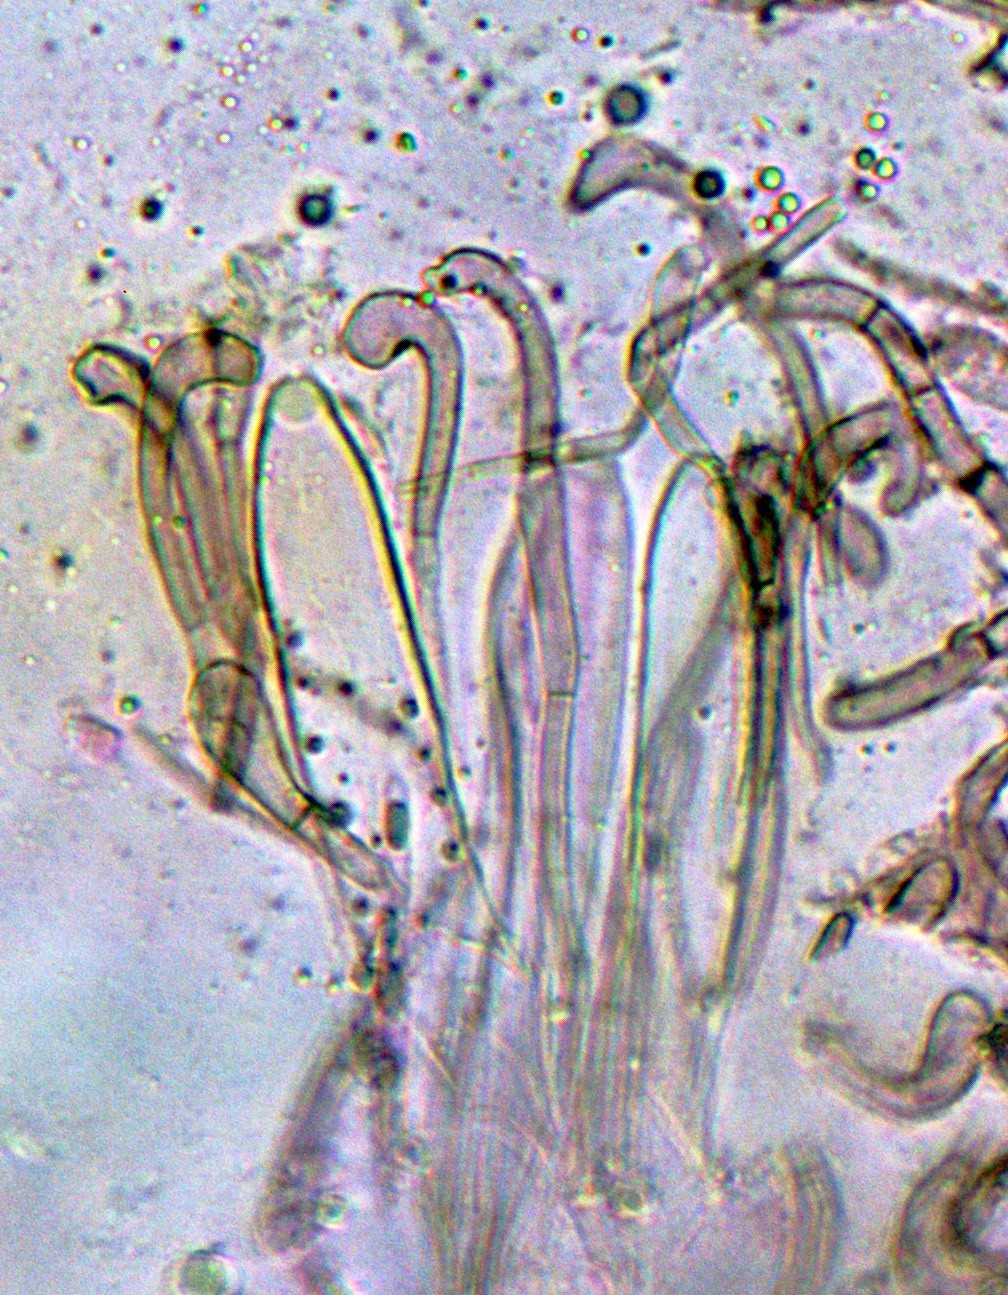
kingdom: Fungi
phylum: Ascomycota
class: Geoglossomycetes
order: Geoglossales
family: Geoglossaceae
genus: Geoglossum
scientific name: Geoglossum umbratile
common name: Plain earthtongue
